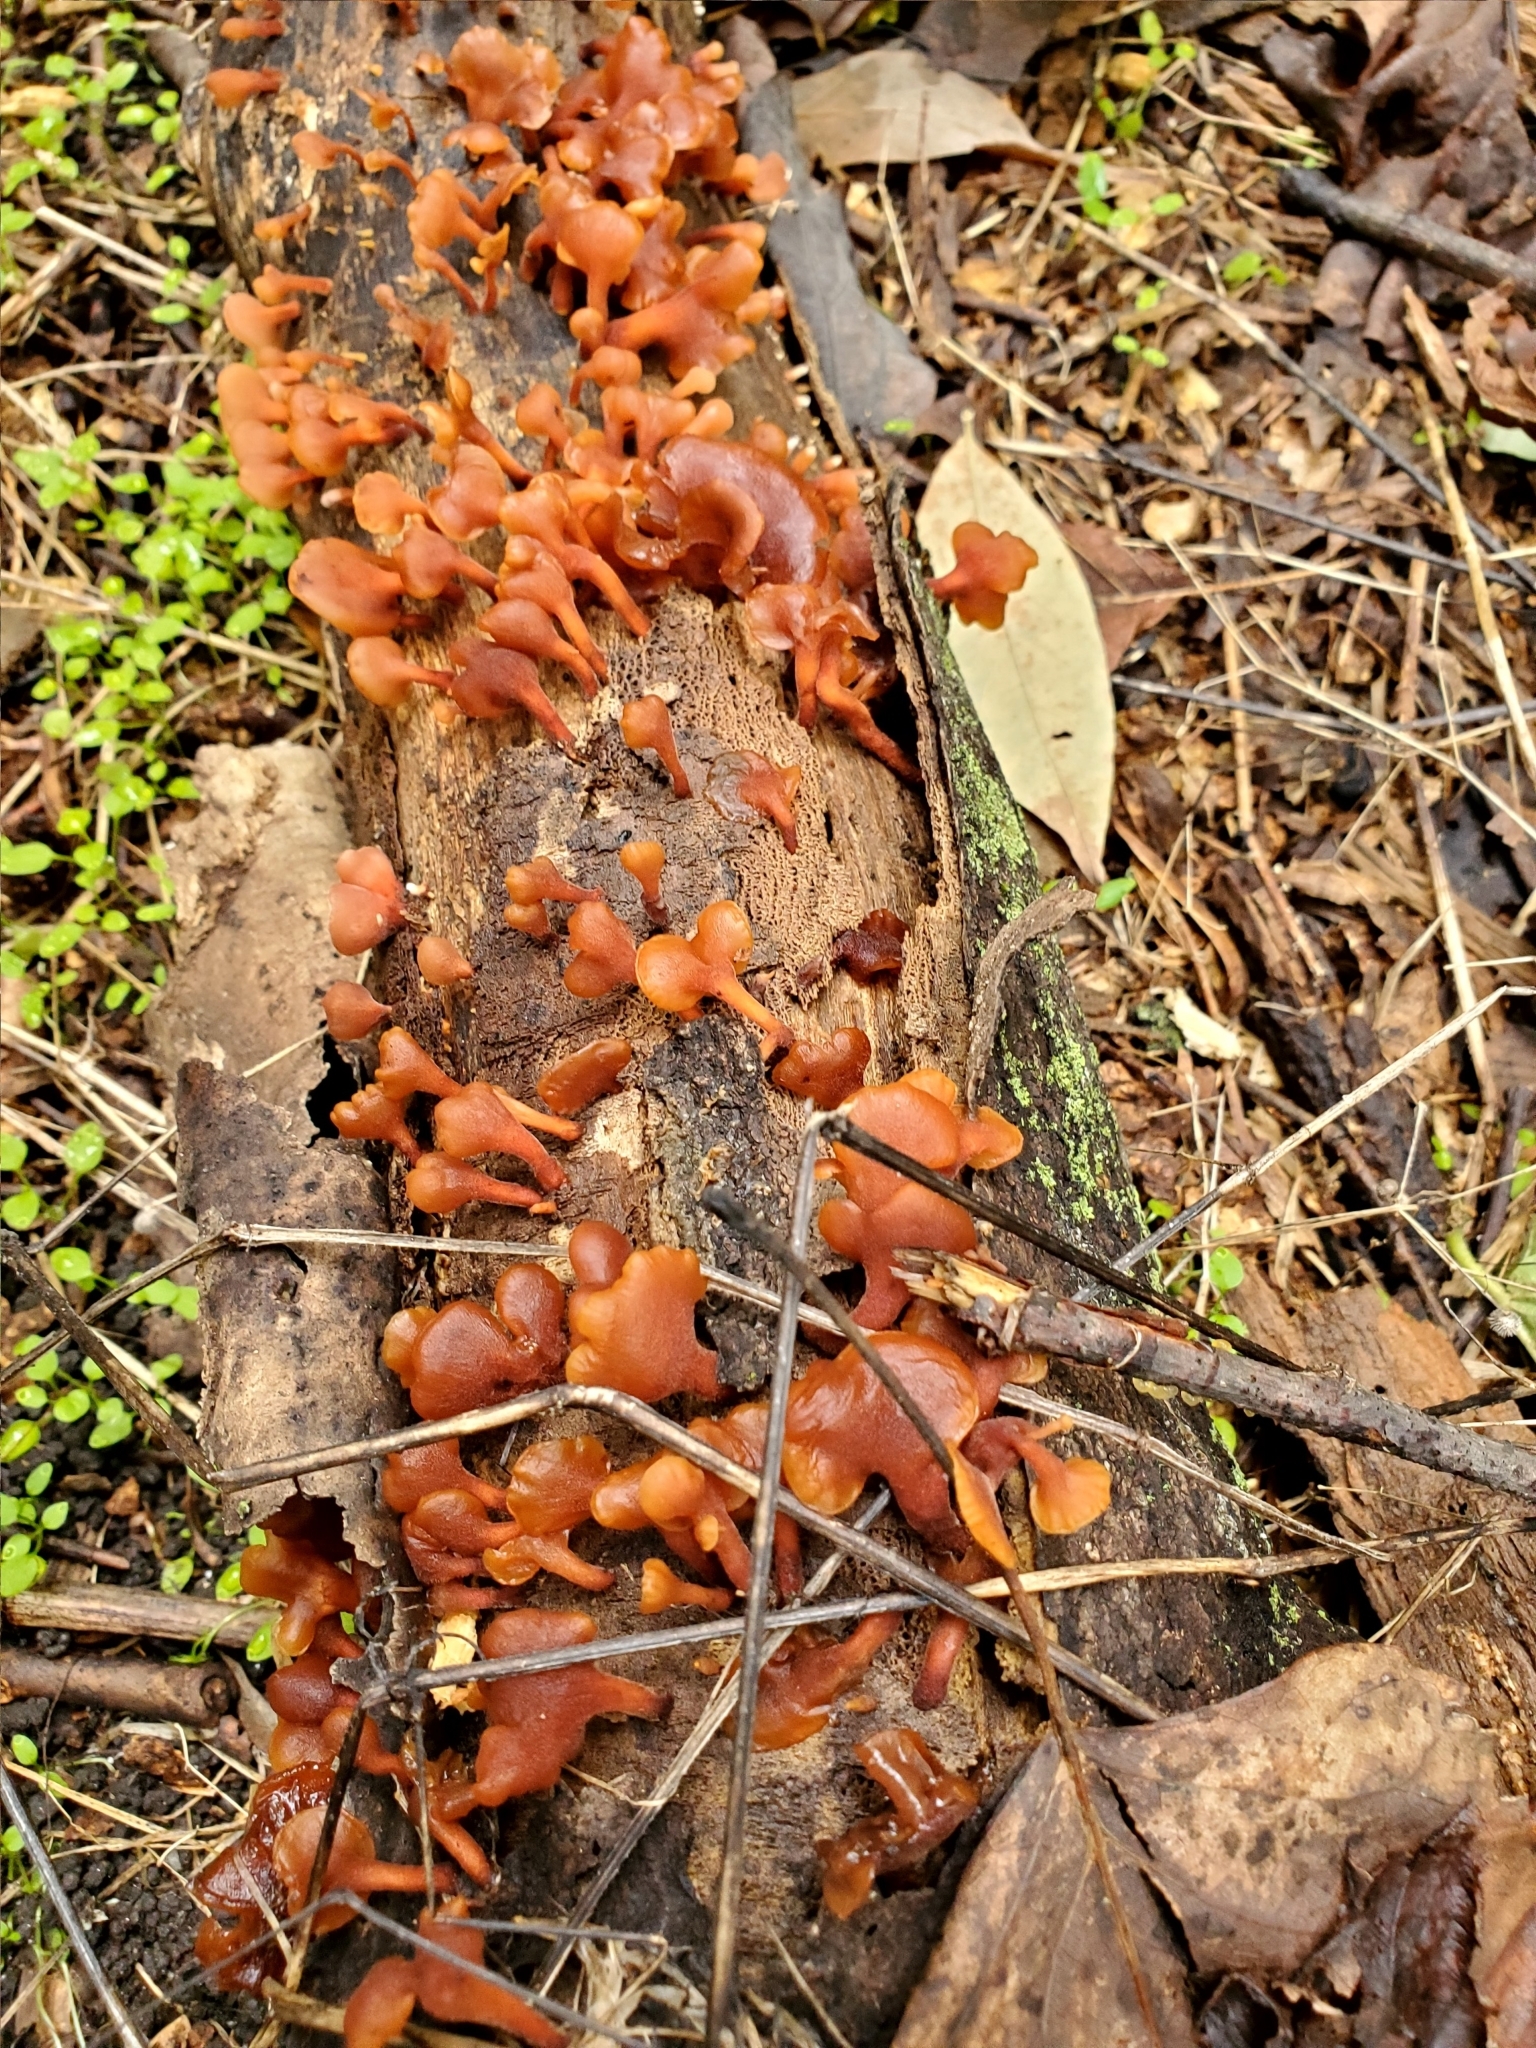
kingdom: Fungi
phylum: Basidiomycota
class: Dacrymycetes
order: Dacrymycetales
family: Dacrymycetaceae
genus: Dacryopinax
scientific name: Dacryopinax elegans
